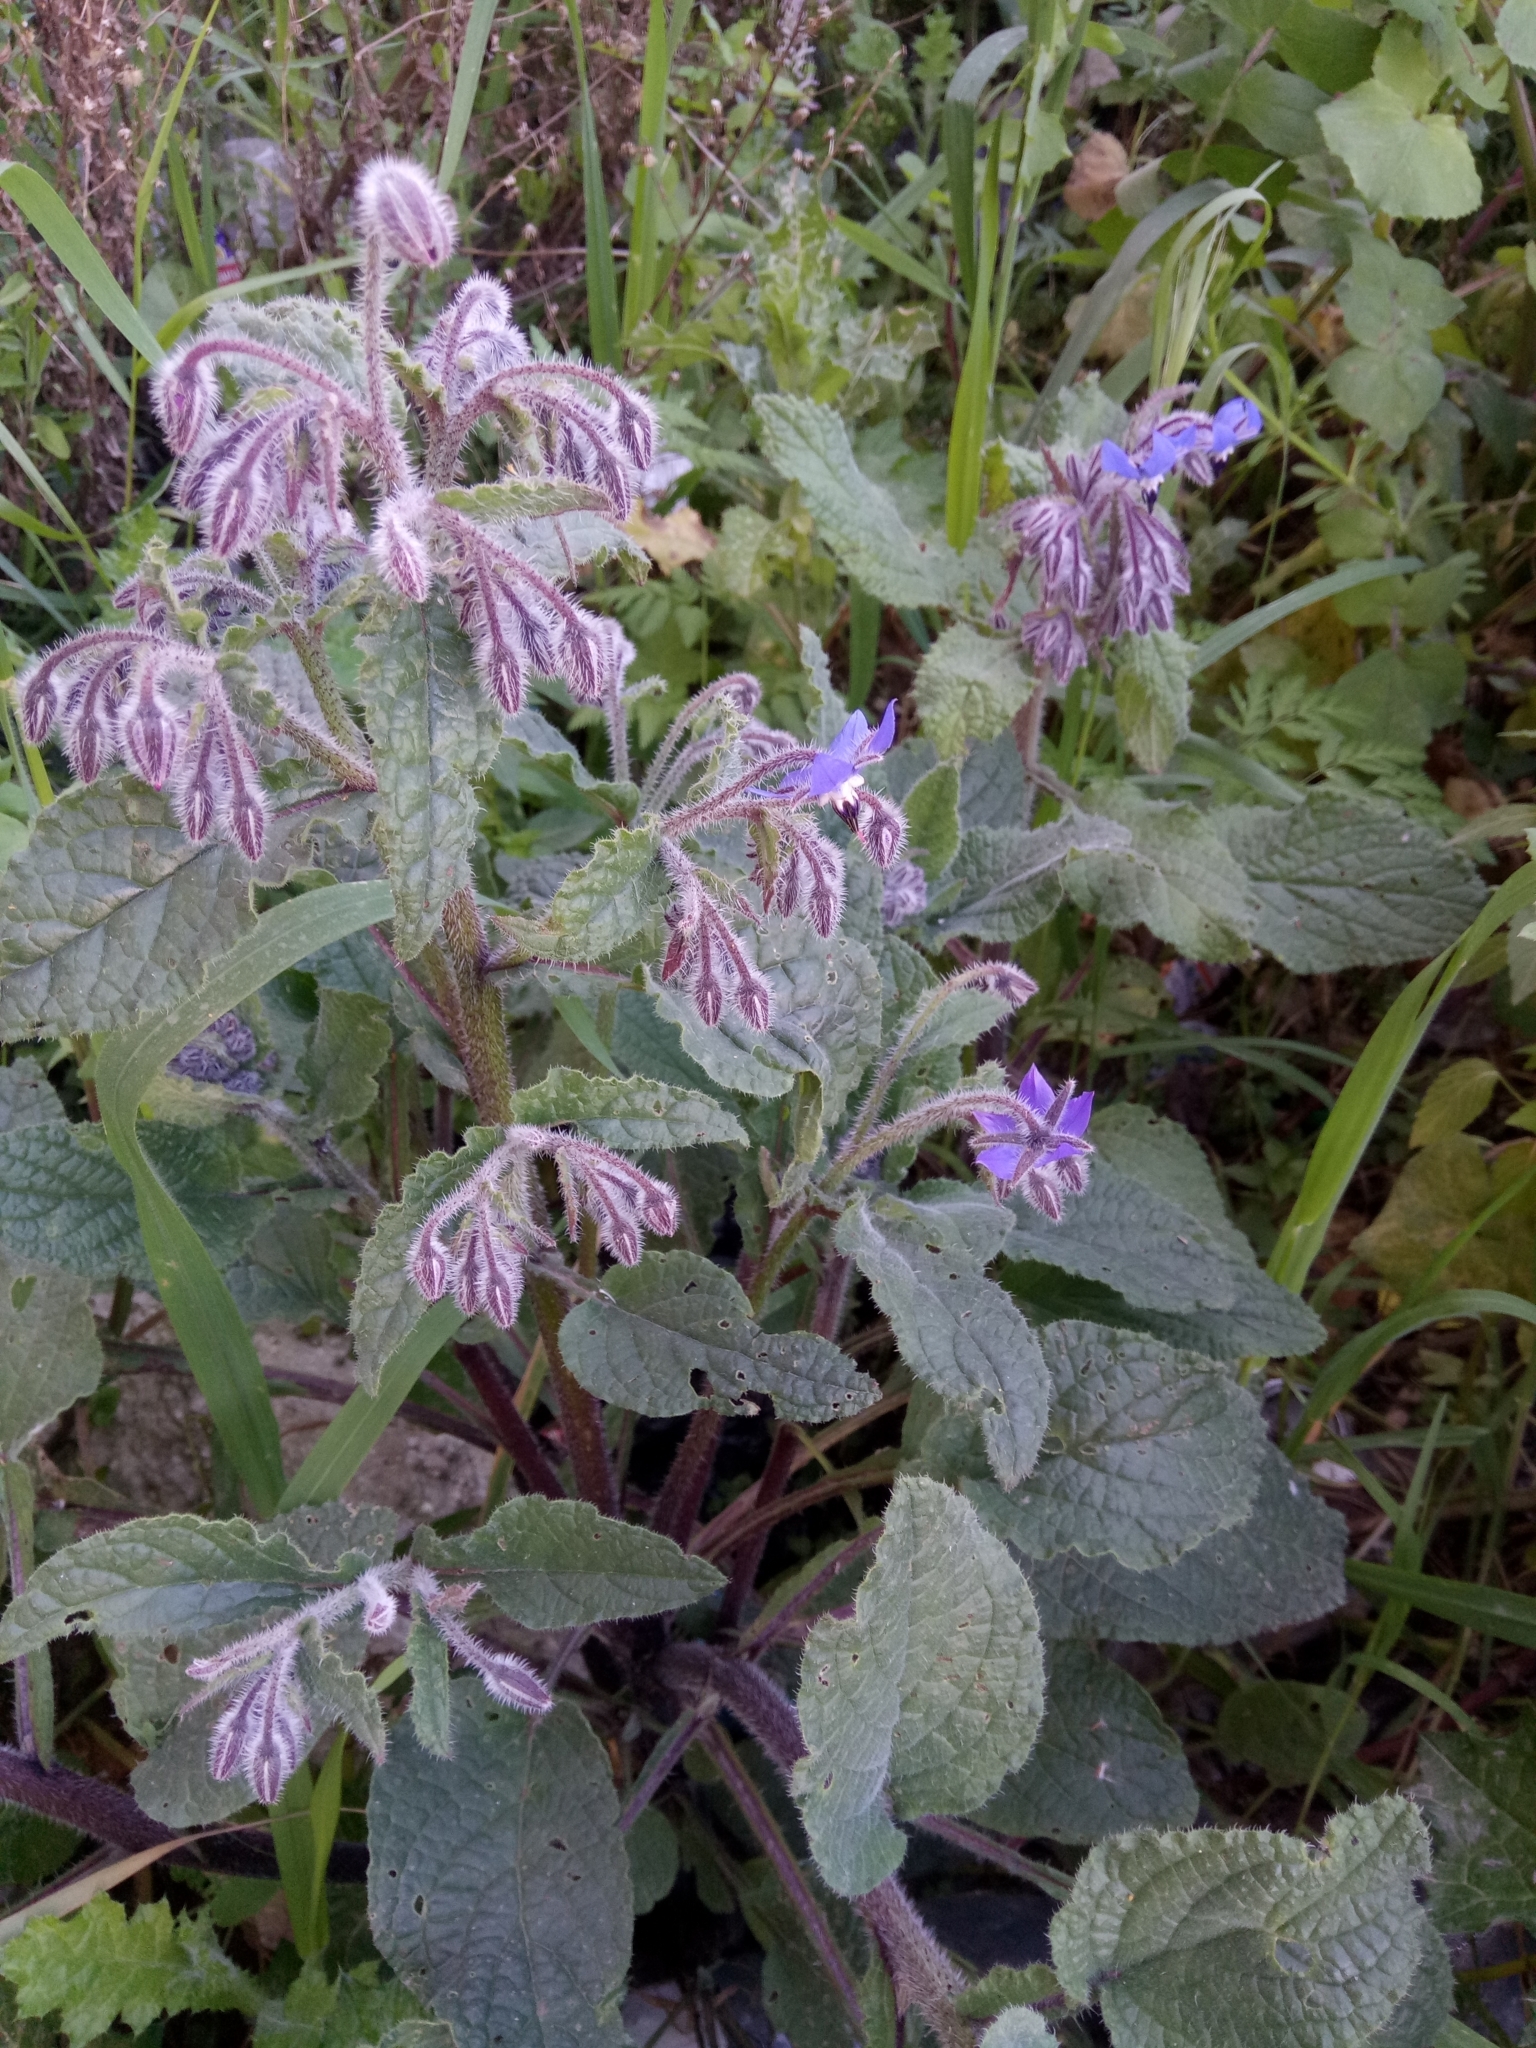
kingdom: Plantae
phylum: Tracheophyta
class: Magnoliopsida
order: Boraginales
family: Boraginaceae
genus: Borago
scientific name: Borago officinalis
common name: Borage
